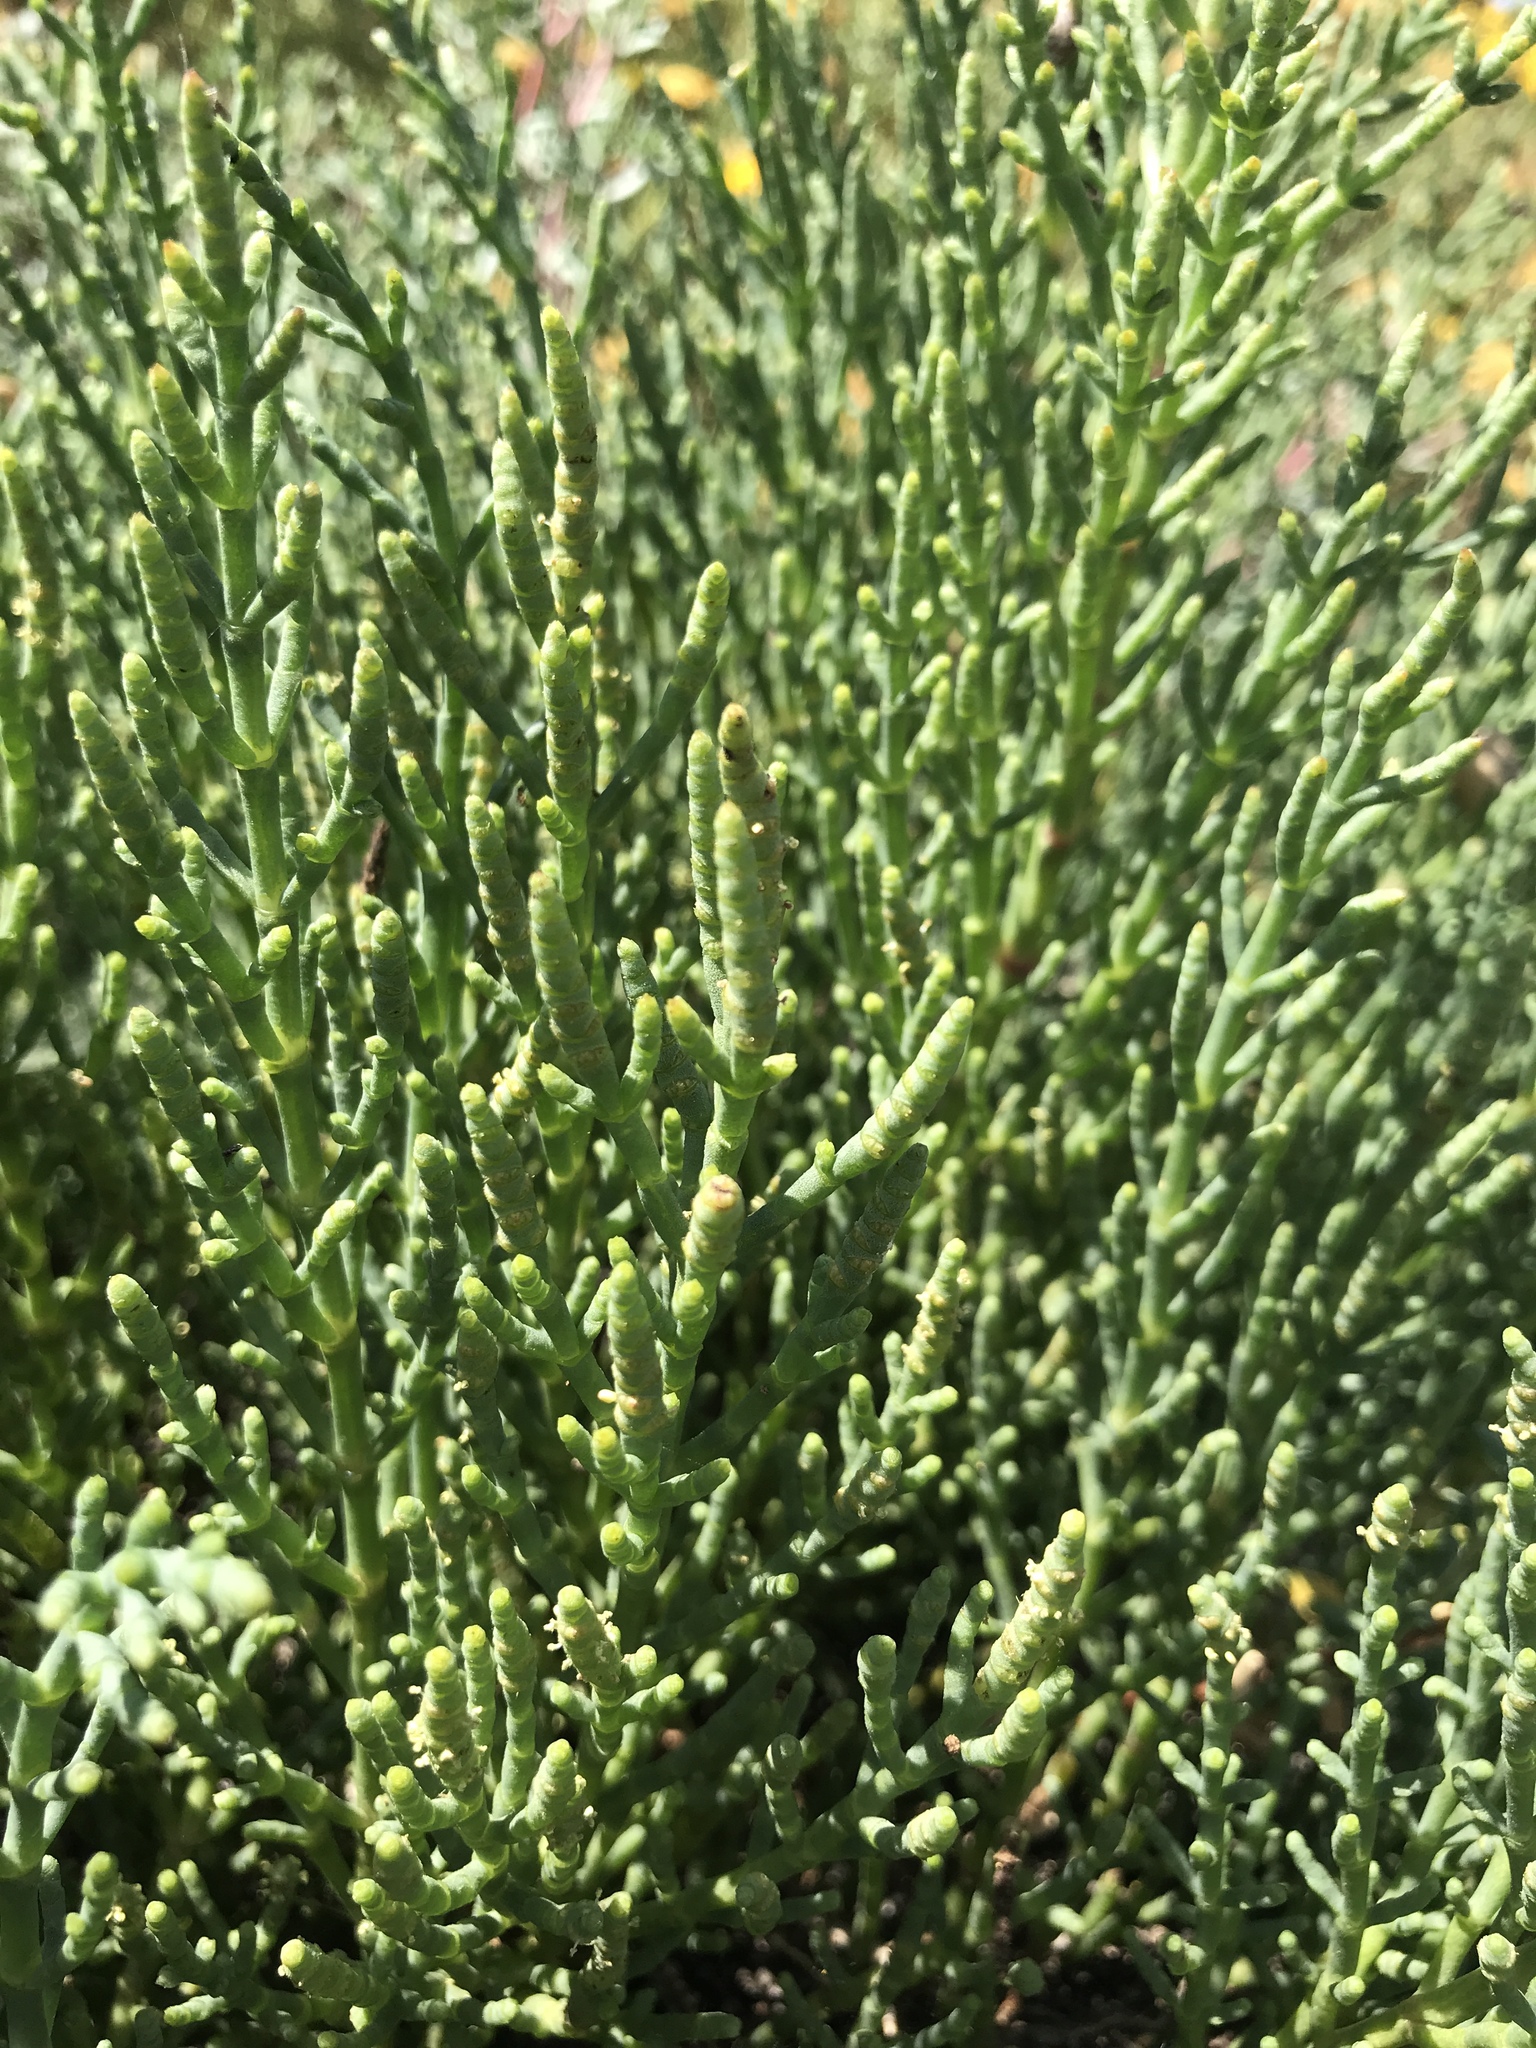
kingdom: Plantae
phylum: Tracheophyta
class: Magnoliopsida
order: Caryophyllales
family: Amaranthaceae
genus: Arthroceras
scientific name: Arthroceras subterminale
